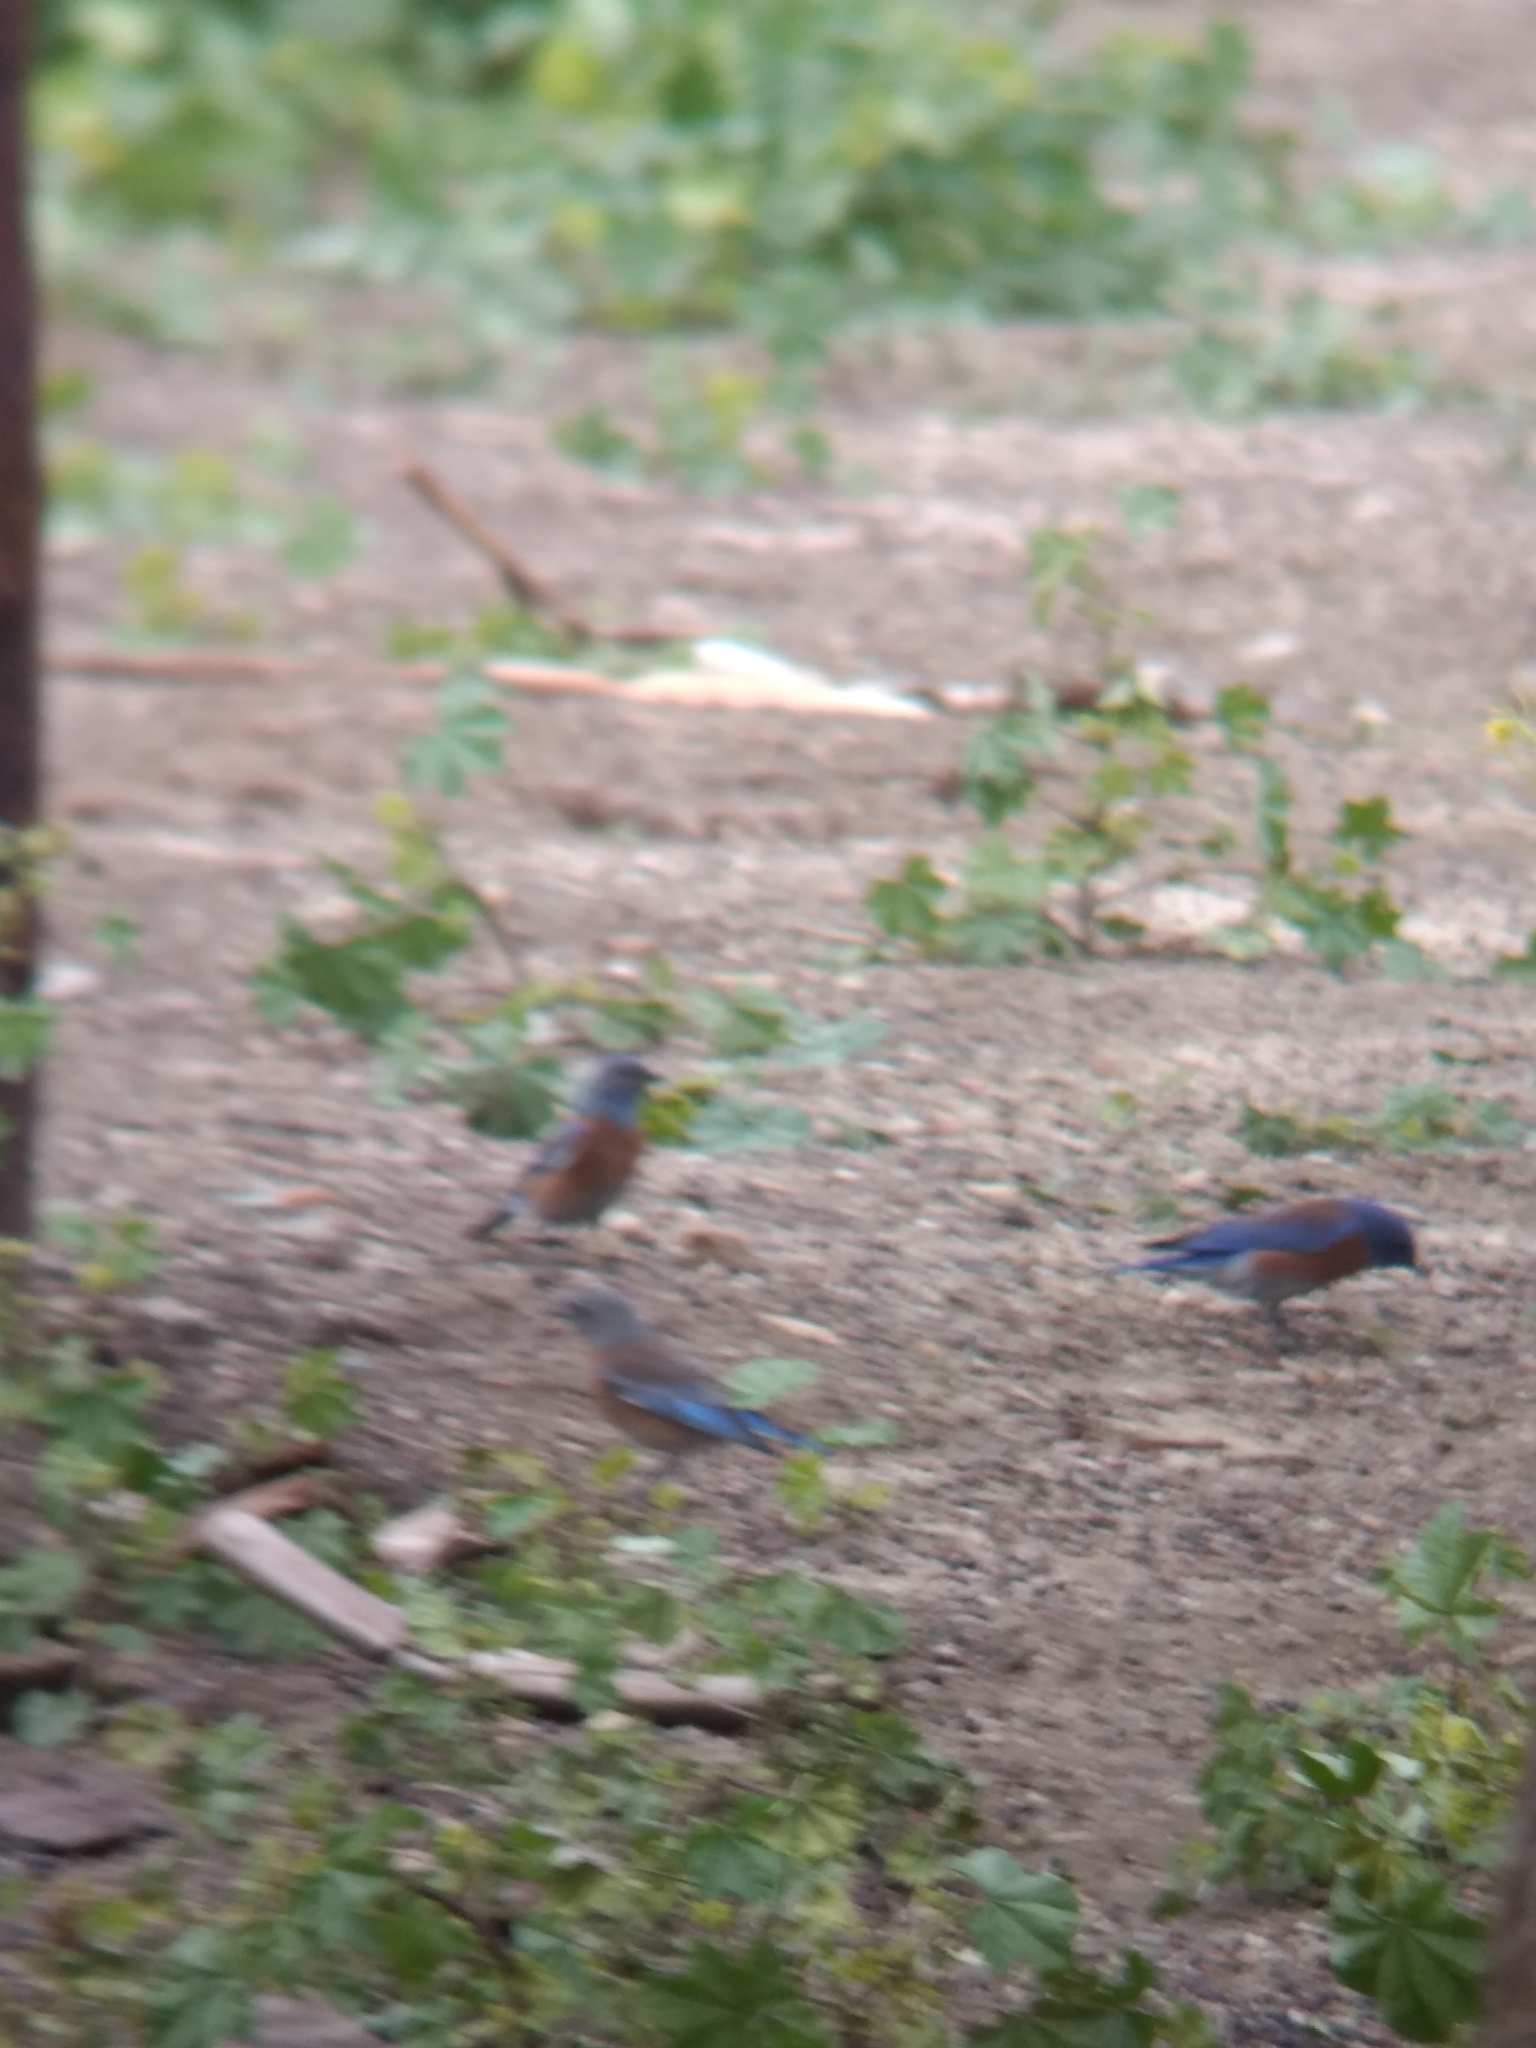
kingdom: Animalia
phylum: Chordata
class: Aves
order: Passeriformes
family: Turdidae
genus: Sialia
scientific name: Sialia mexicana
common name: Western bluebird
